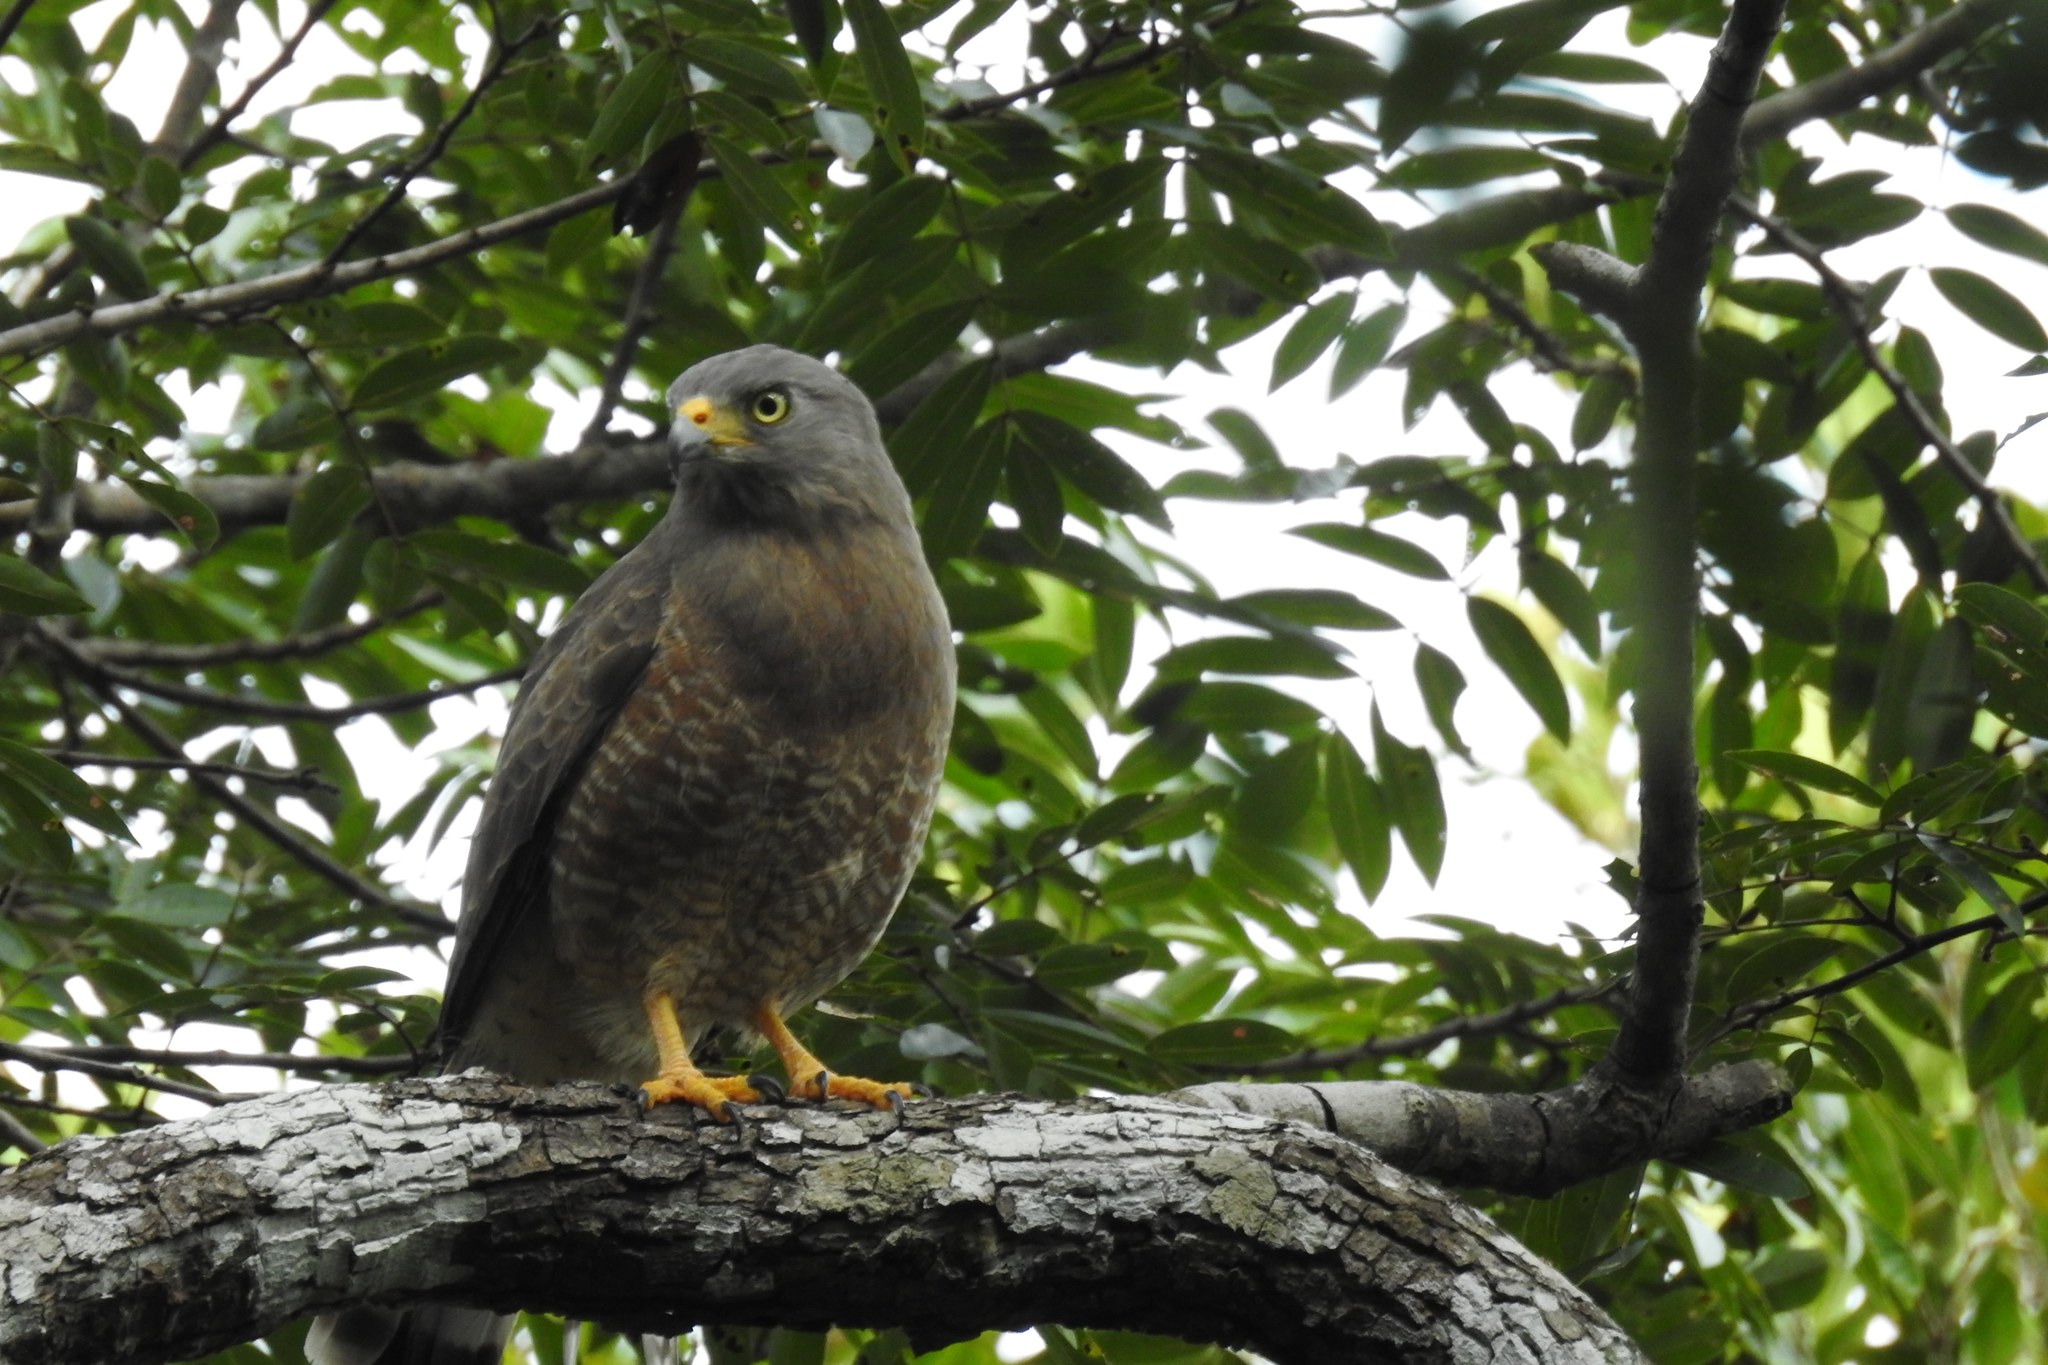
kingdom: Animalia
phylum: Chordata
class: Aves
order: Accipitriformes
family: Accipitridae
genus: Rupornis
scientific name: Rupornis magnirostris
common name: Roadside hawk
